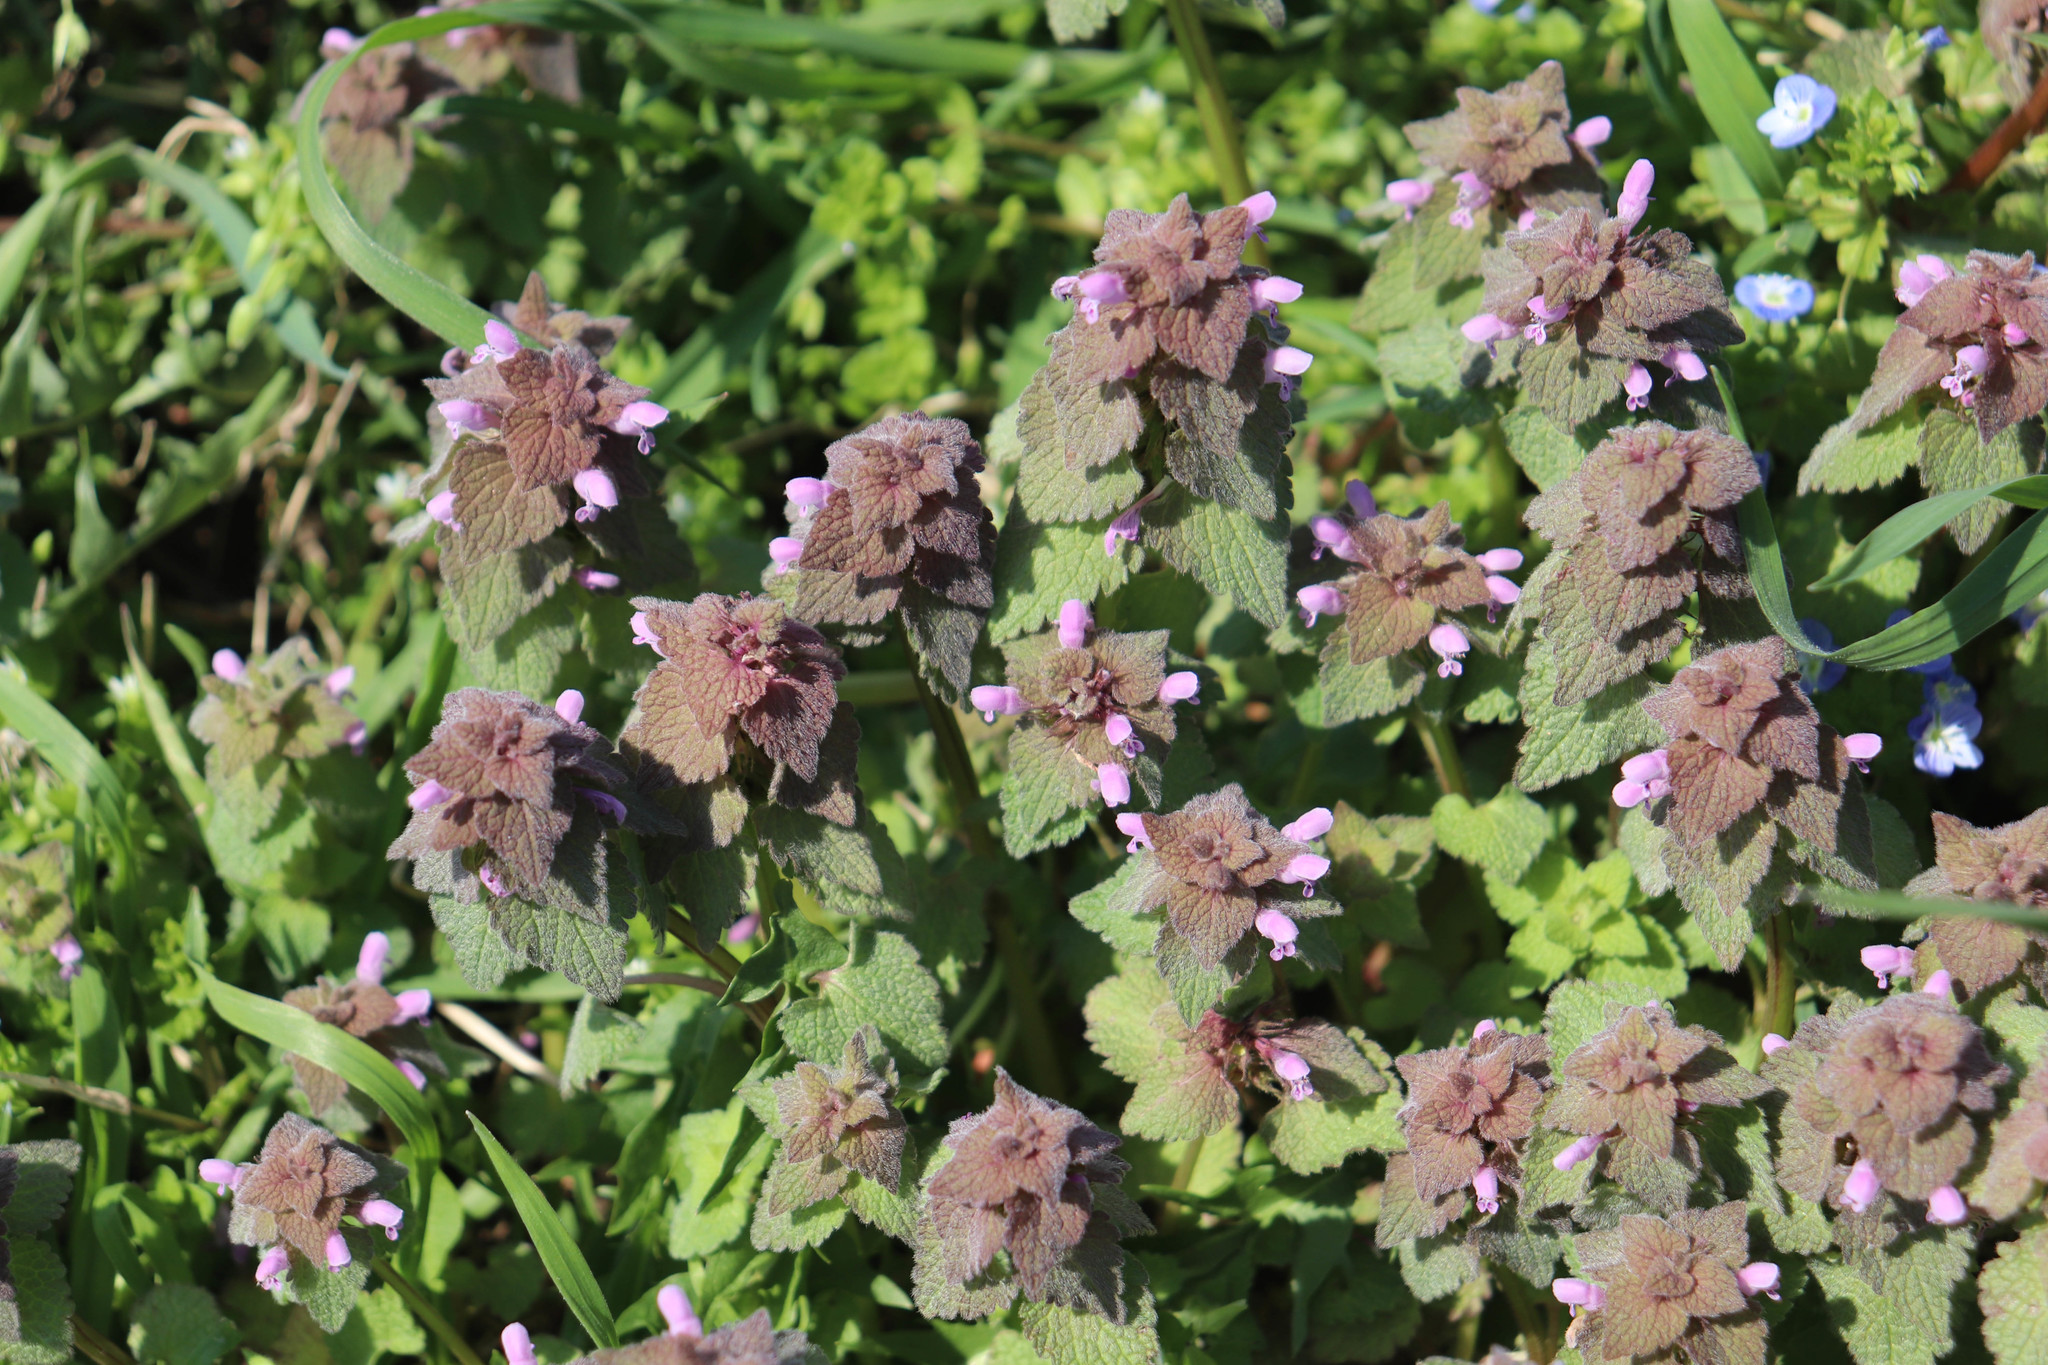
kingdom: Plantae
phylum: Tracheophyta
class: Magnoliopsida
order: Lamiales
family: Lamiaceae
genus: Lamium
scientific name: Lamium purpureum
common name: Red dead-nettle
